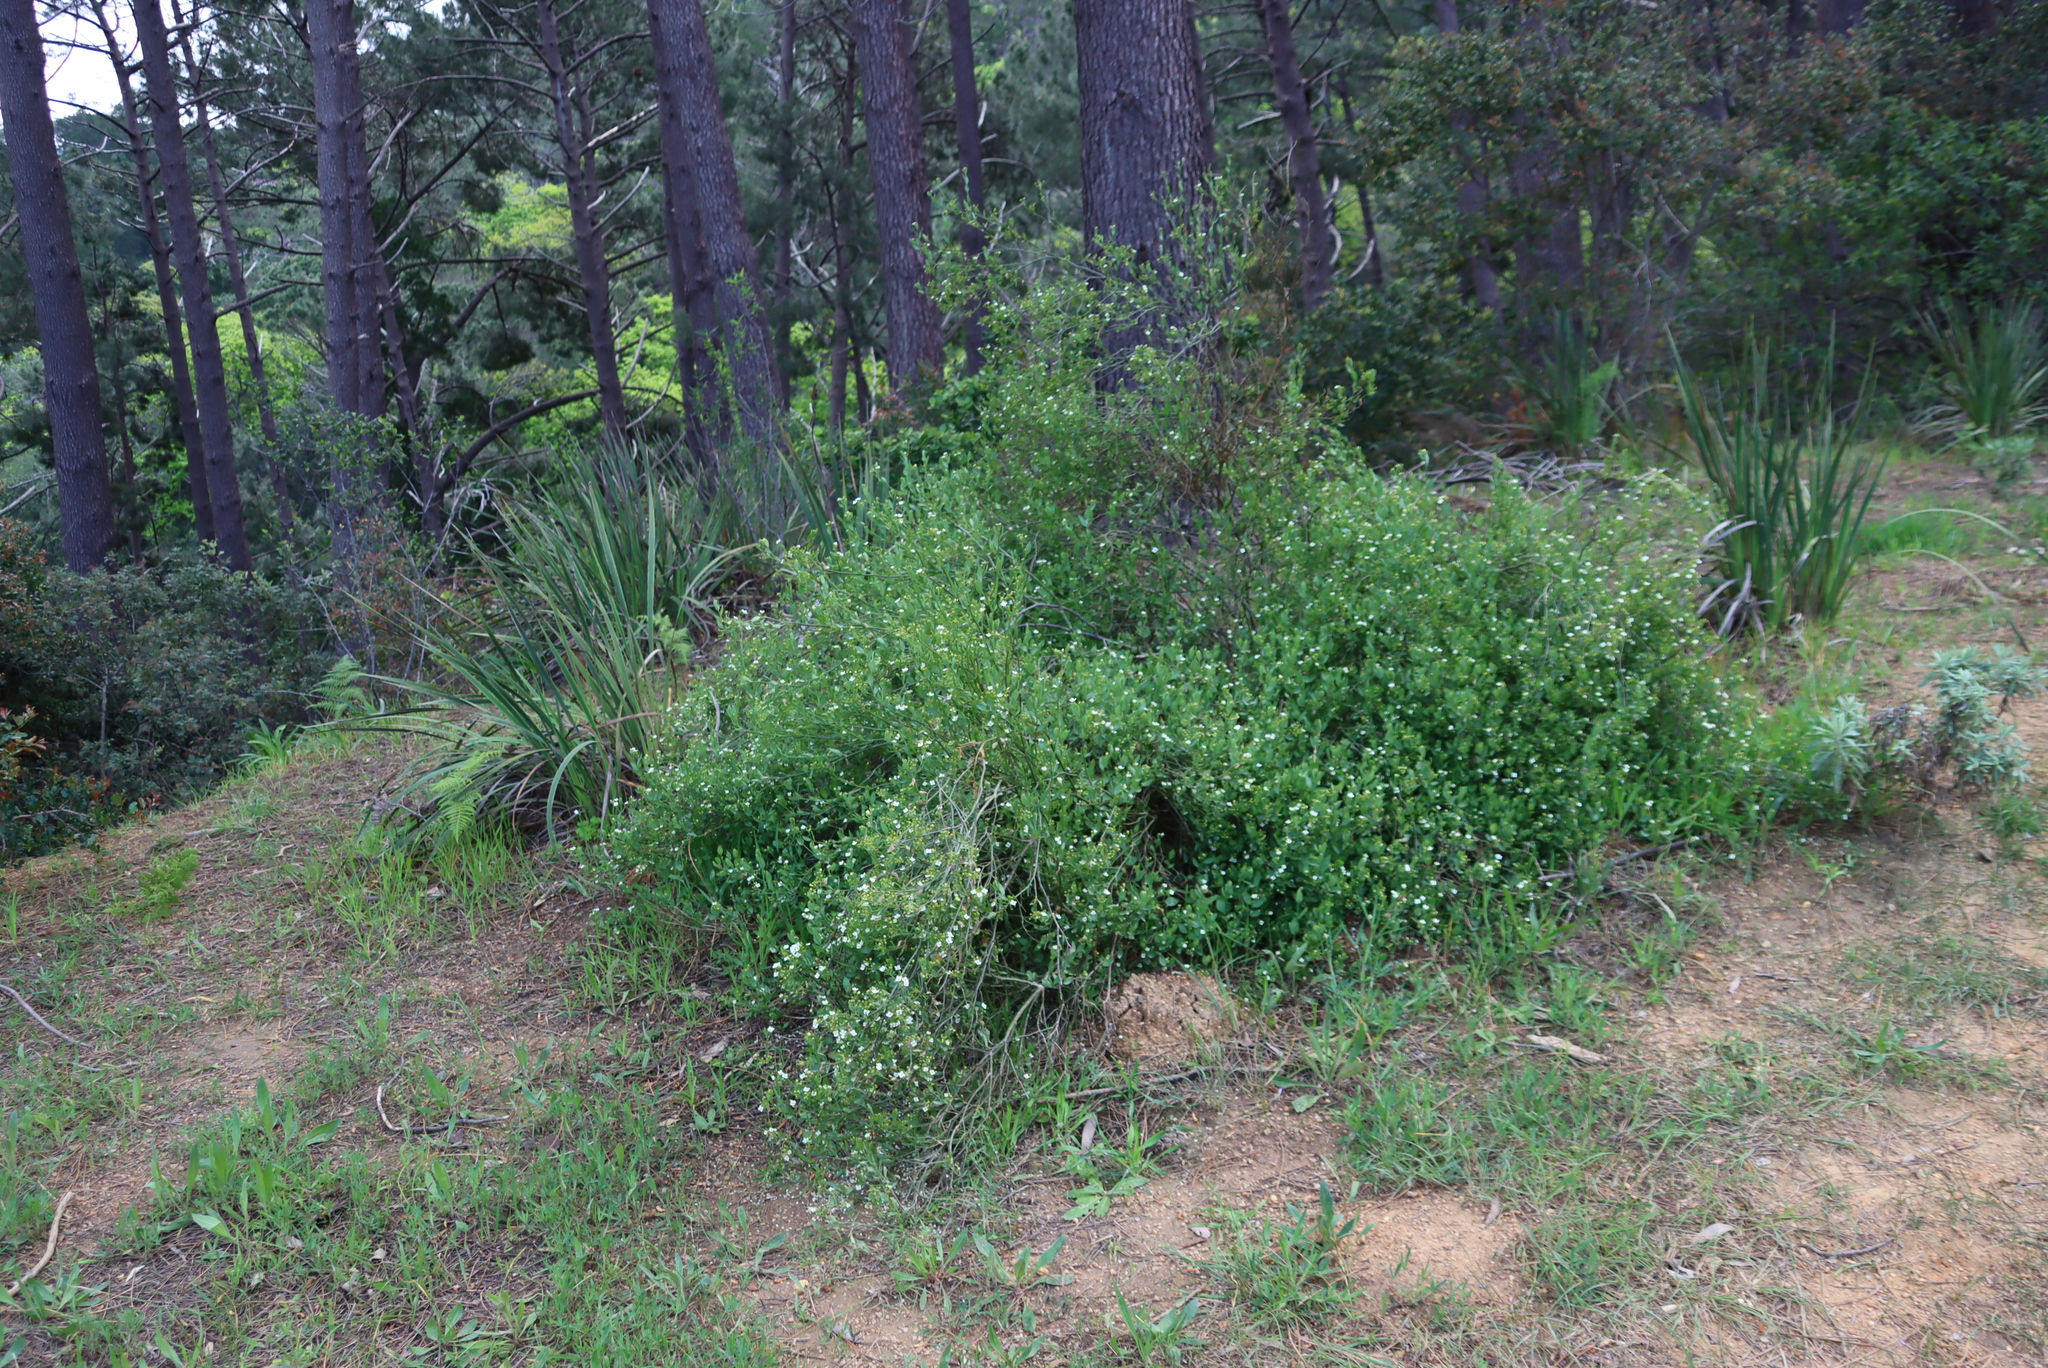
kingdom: Plantae
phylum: Tracheophyta
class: Magnoliopsida
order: Solanales
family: Montiniaceae
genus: Montinia
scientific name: Montinia caryophyllacea
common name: Wild clove-bush
